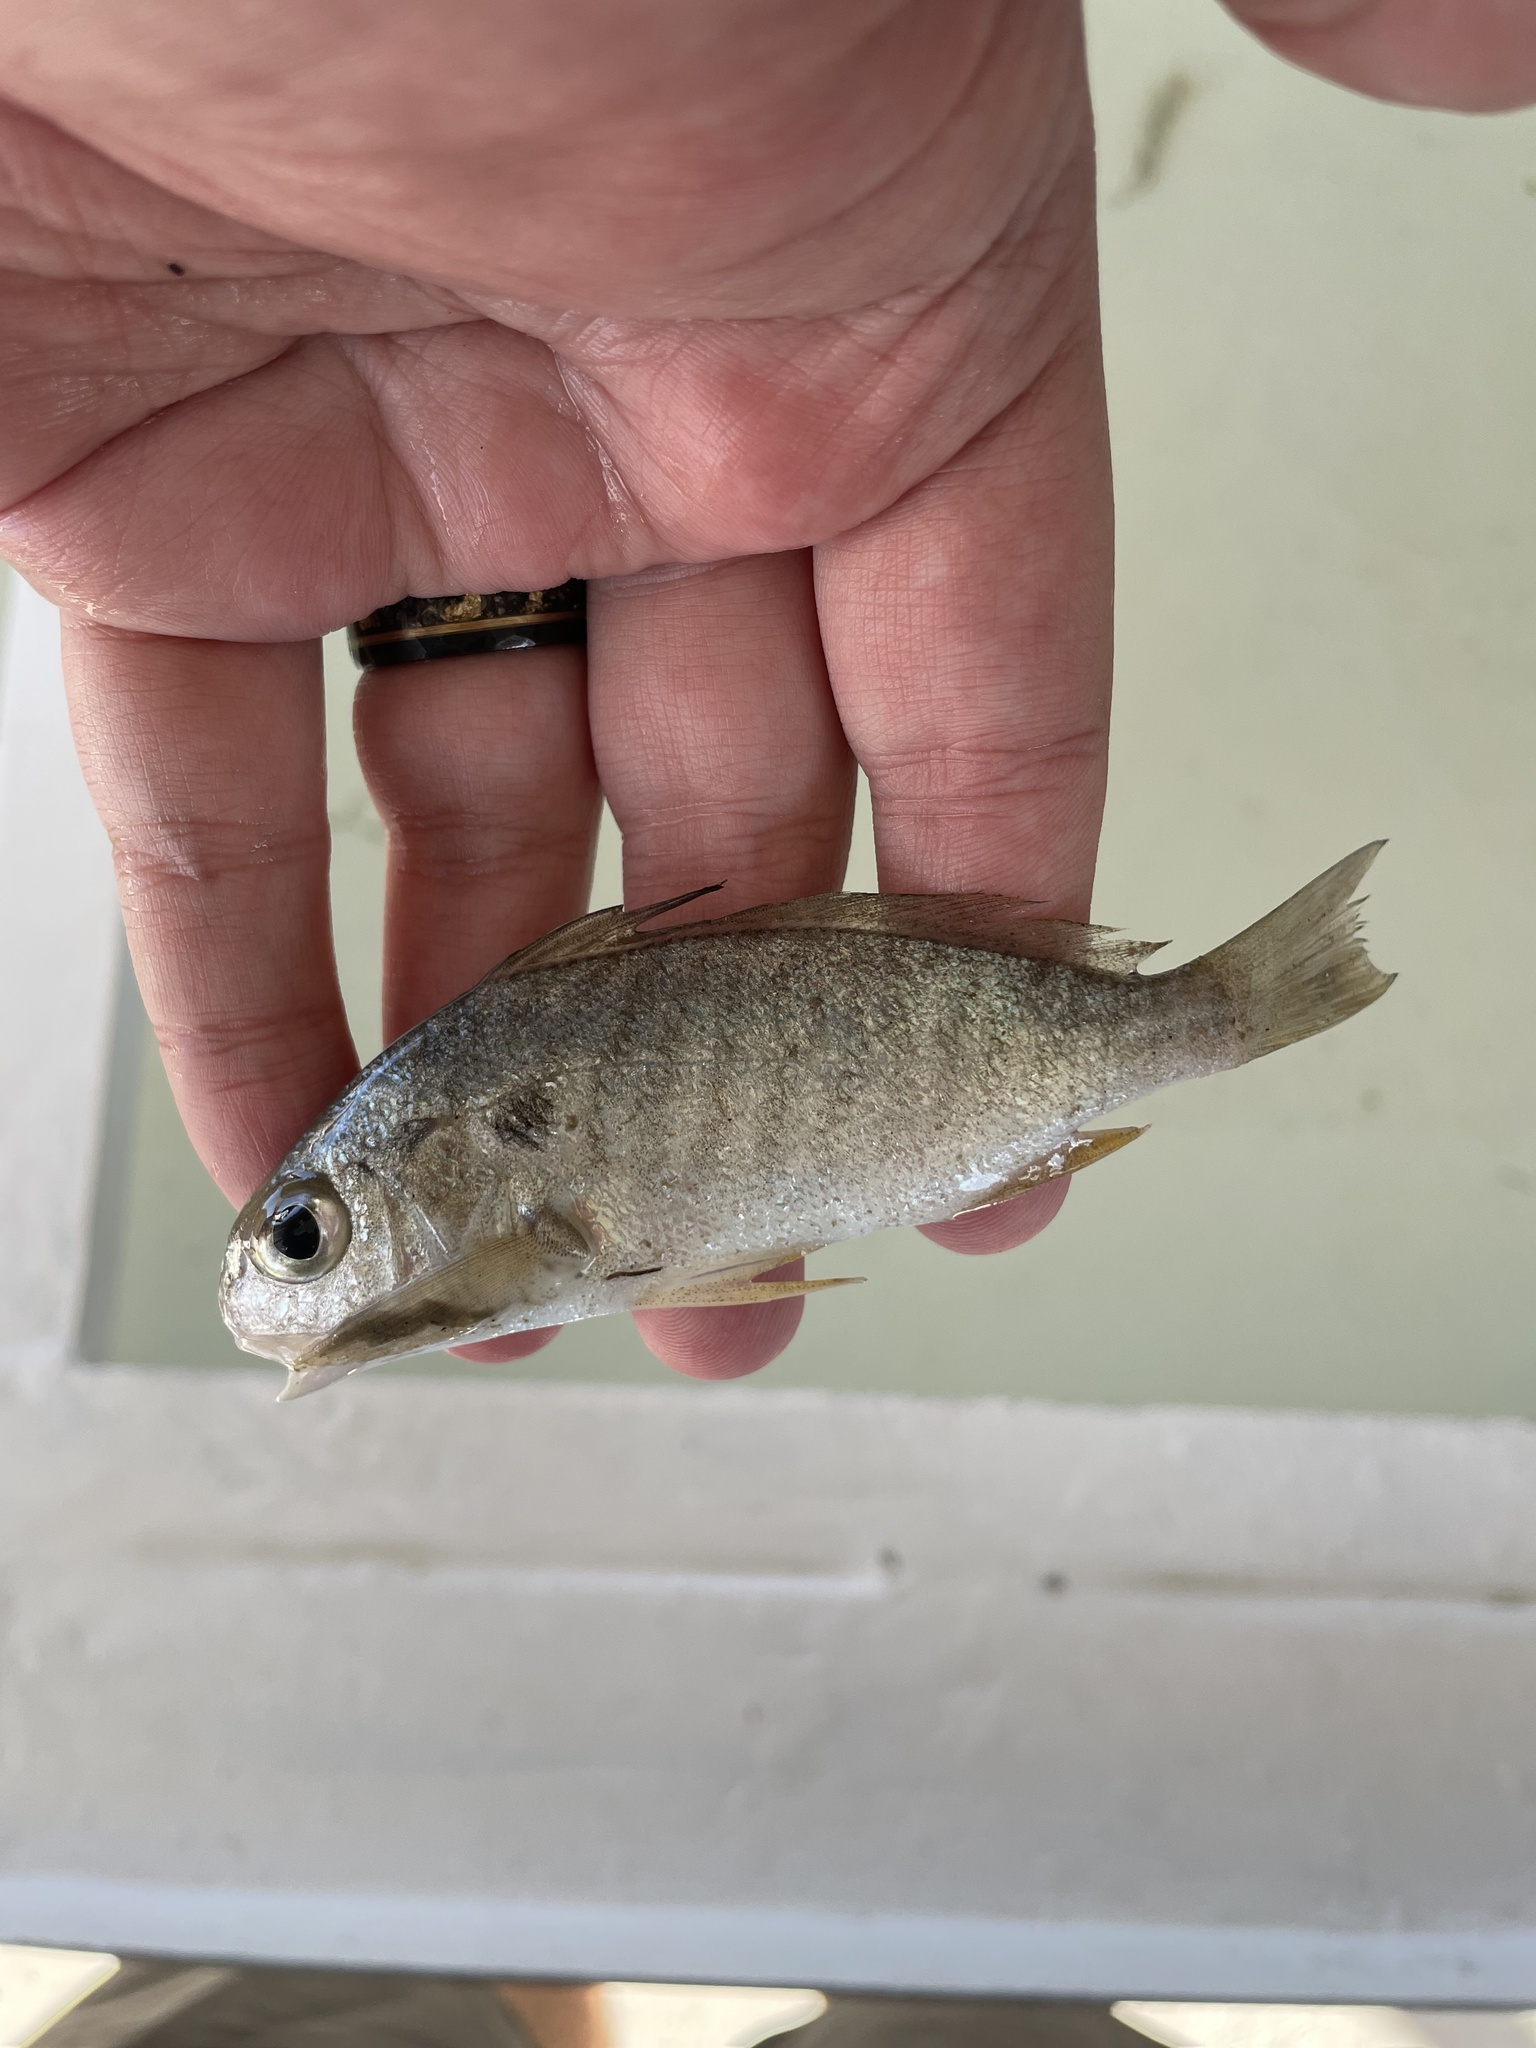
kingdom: Animalia
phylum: Chordata
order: Perciformes
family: Sciaenidae
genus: Leiostomus
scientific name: Leiostomus xanthurus
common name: Spot
